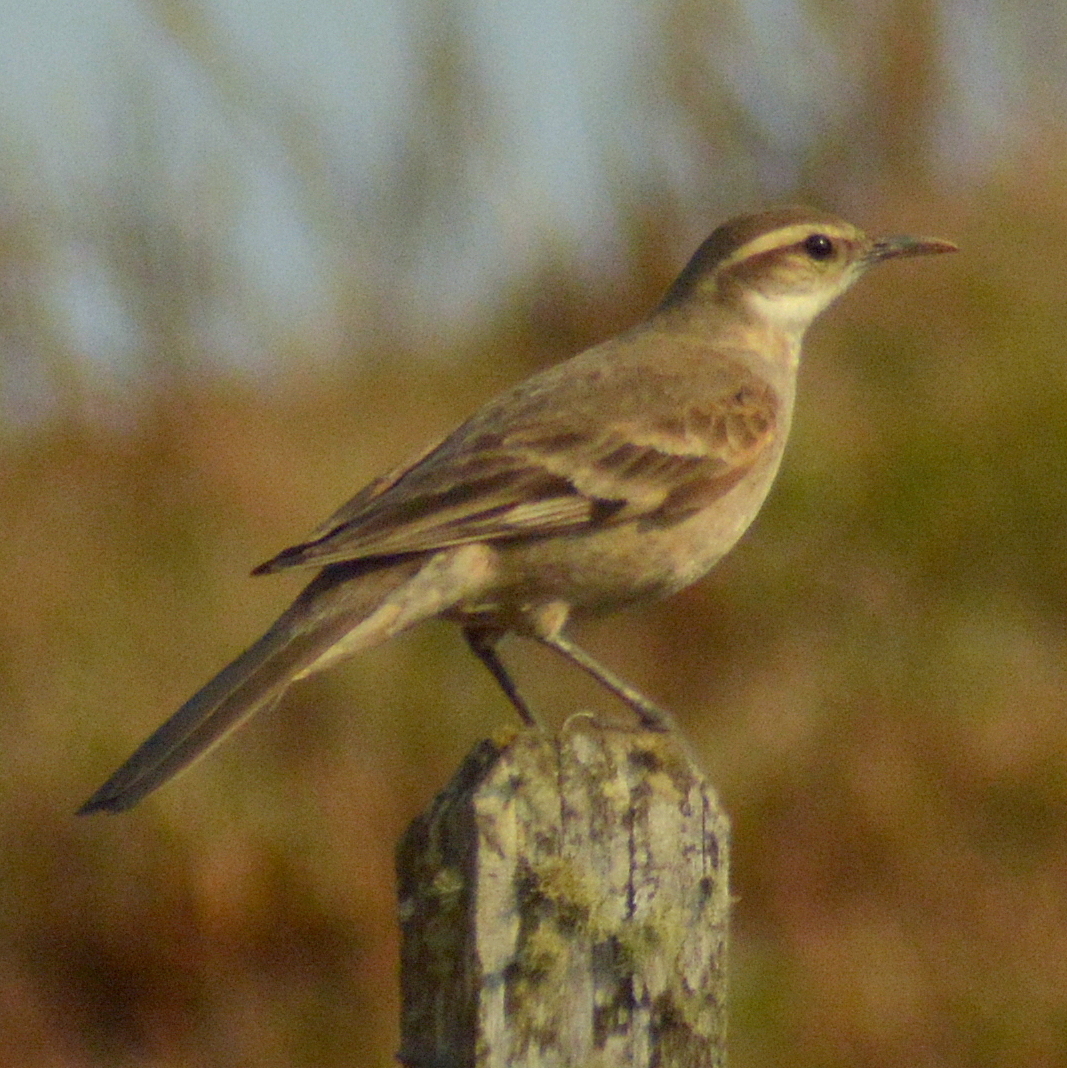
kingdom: Animalia
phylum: Chordata
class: Aves
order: Passeriformes
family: Furnariidae
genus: Cinclodes
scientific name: Cinclodes pabsti
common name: Long-tailed cinclodes
